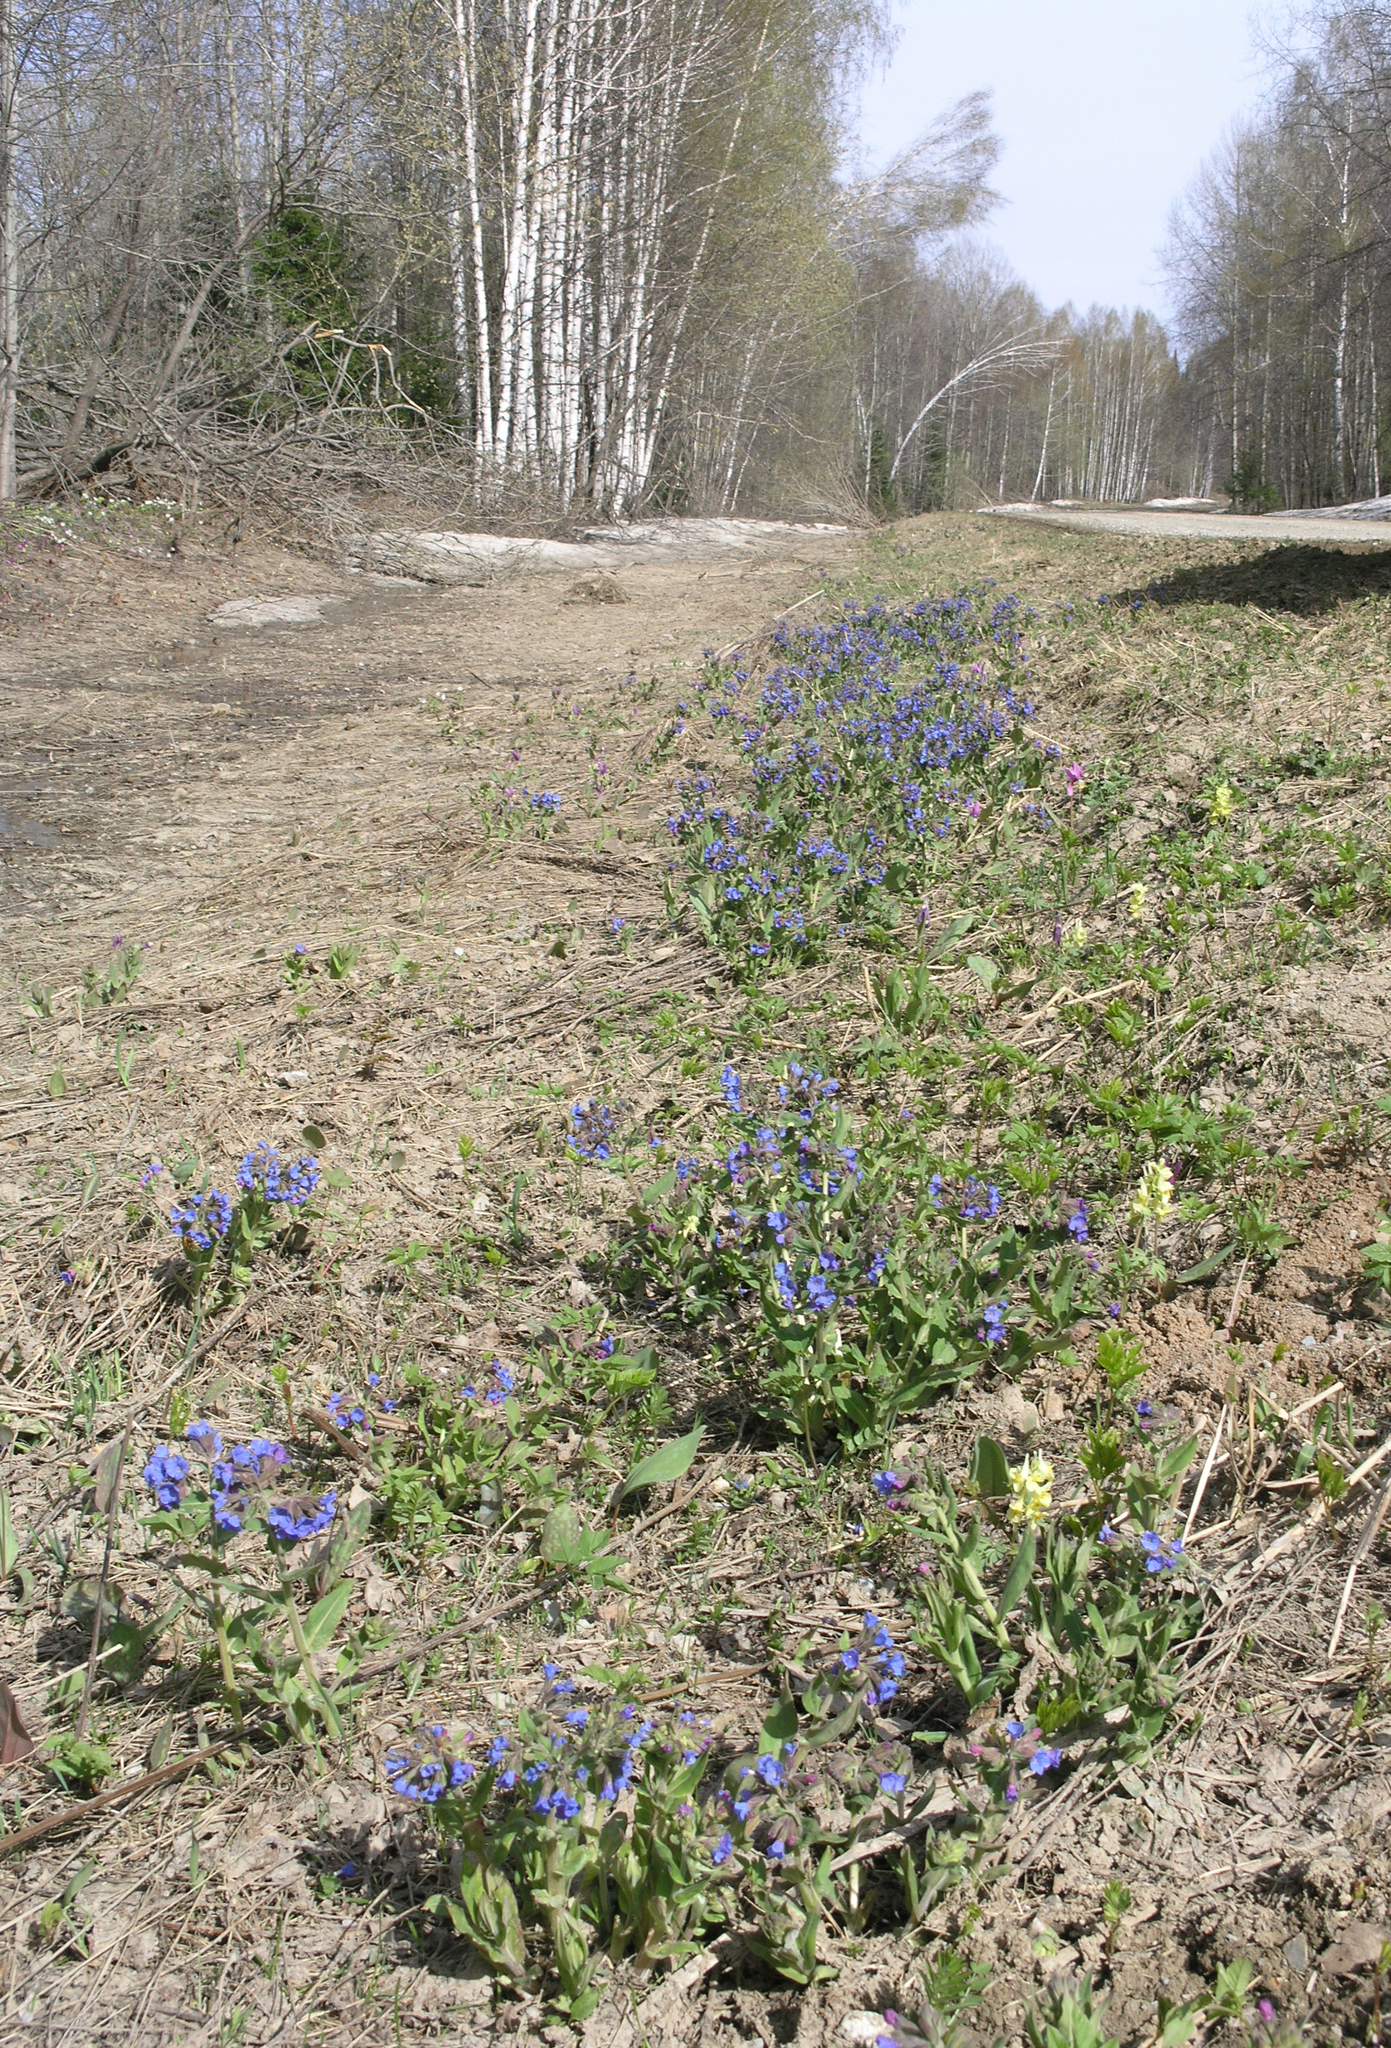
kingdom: Plantae
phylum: Tracheophyta
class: Magnoliopsida
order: Boraginales
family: Boraginaceae
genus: Pulmonaria
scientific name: Pulmonaria mollis
